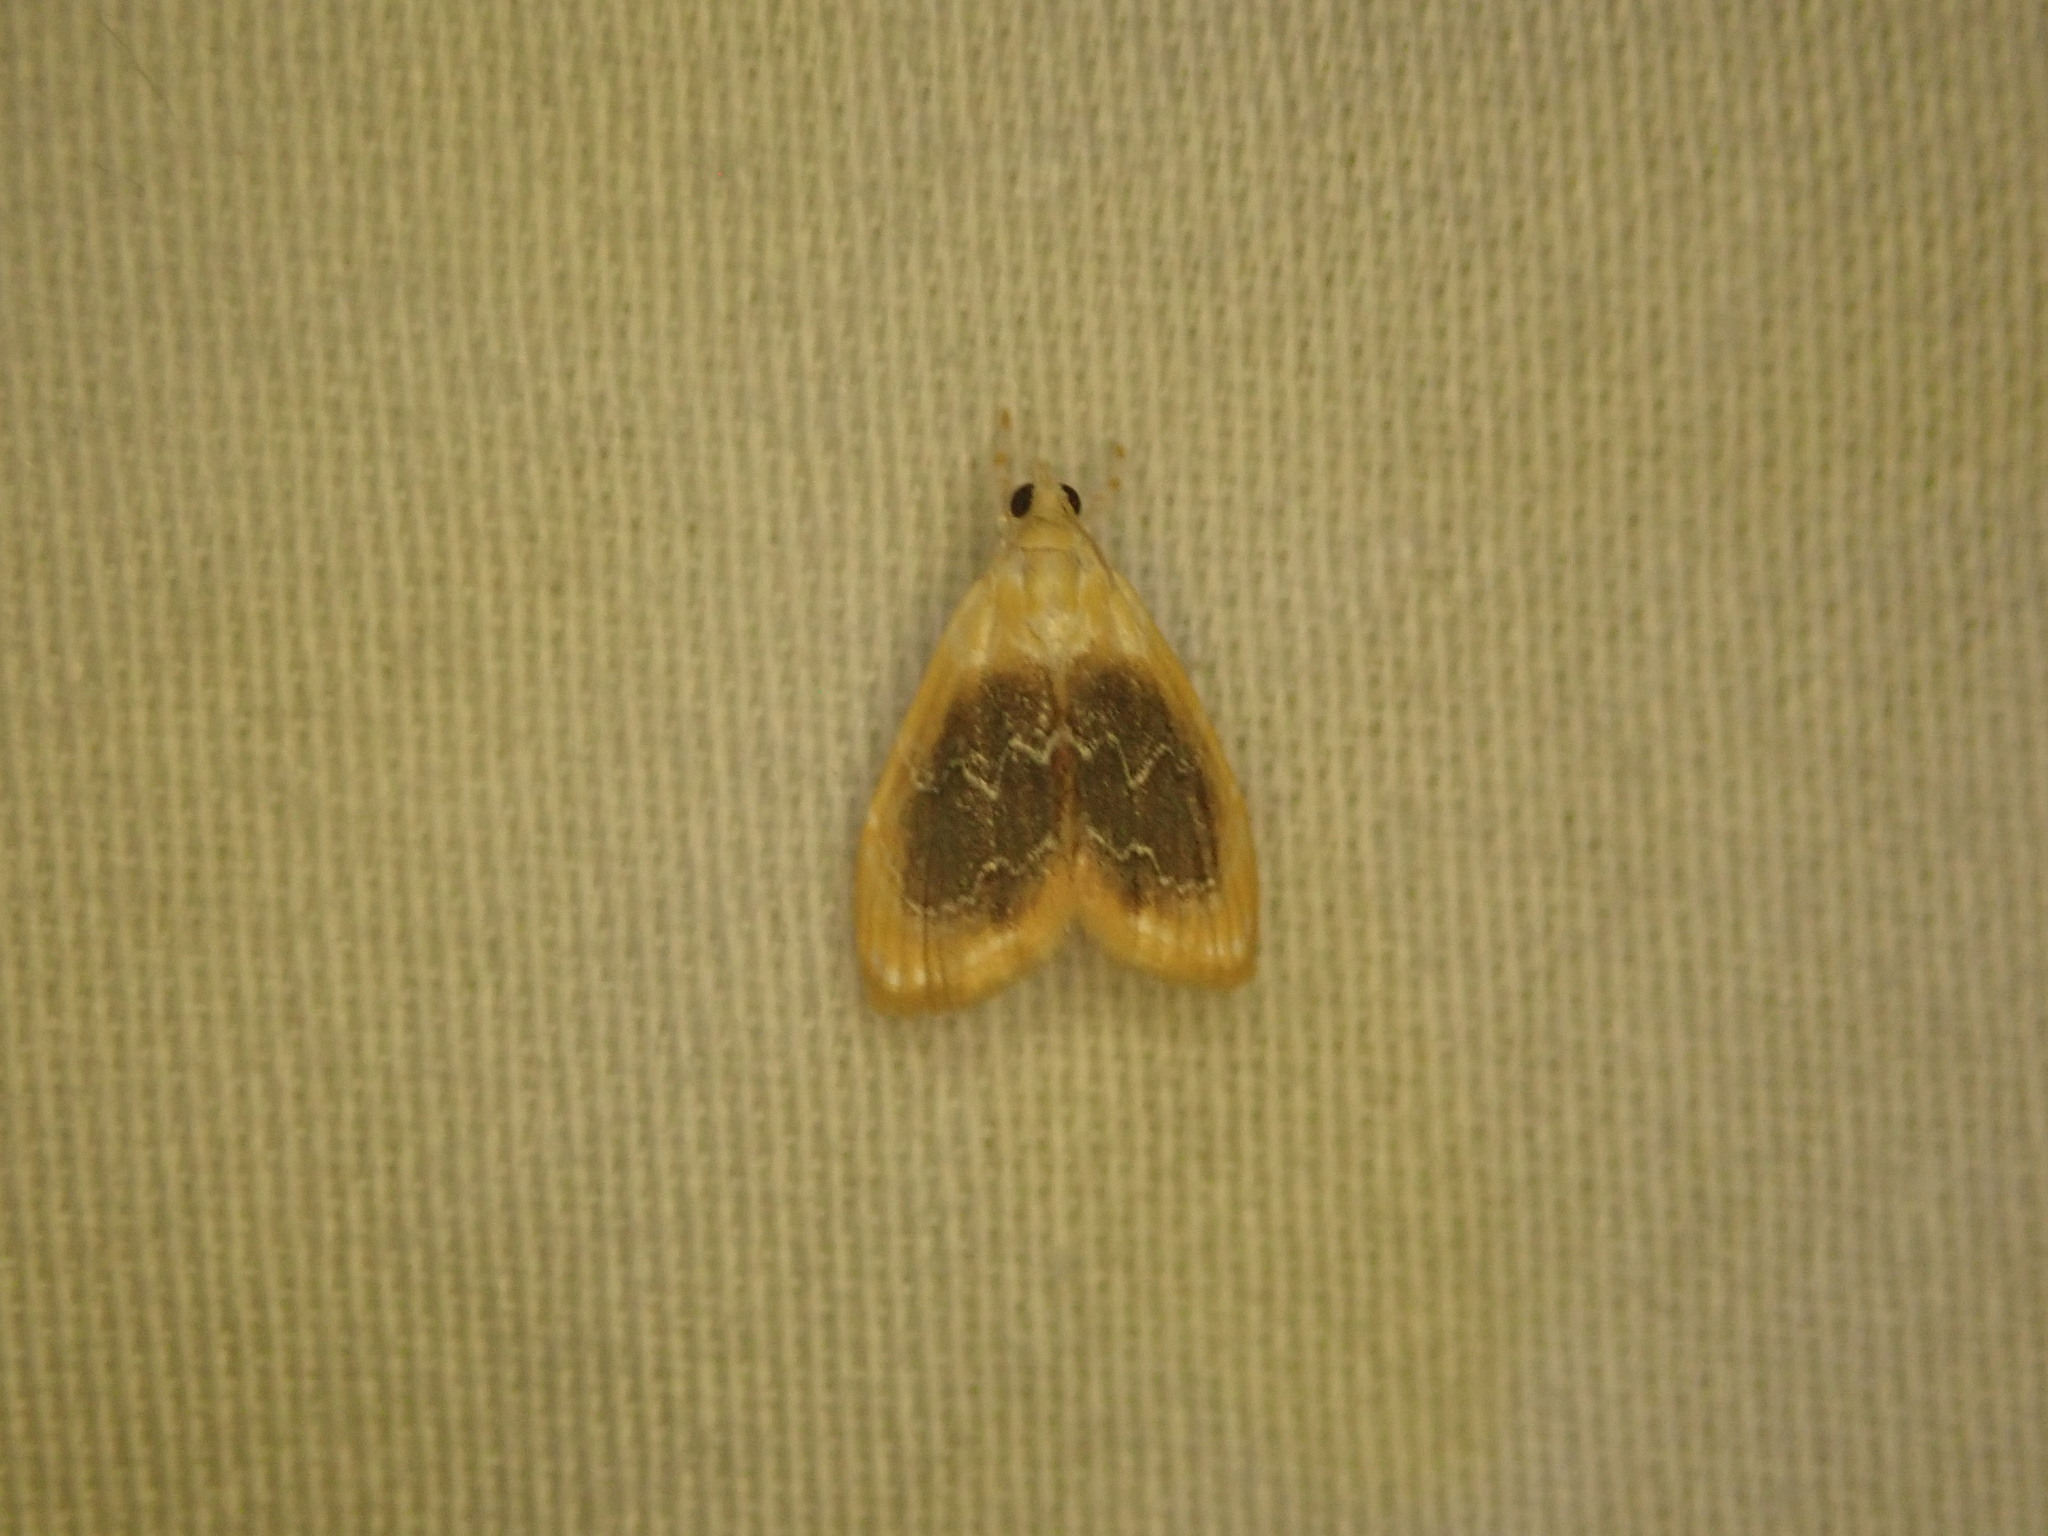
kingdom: Animalia
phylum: Arthropoda
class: Insecta
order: Lepidoptera
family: Crambidae
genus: Glaphyria
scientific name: Glaphyria fulminalis
